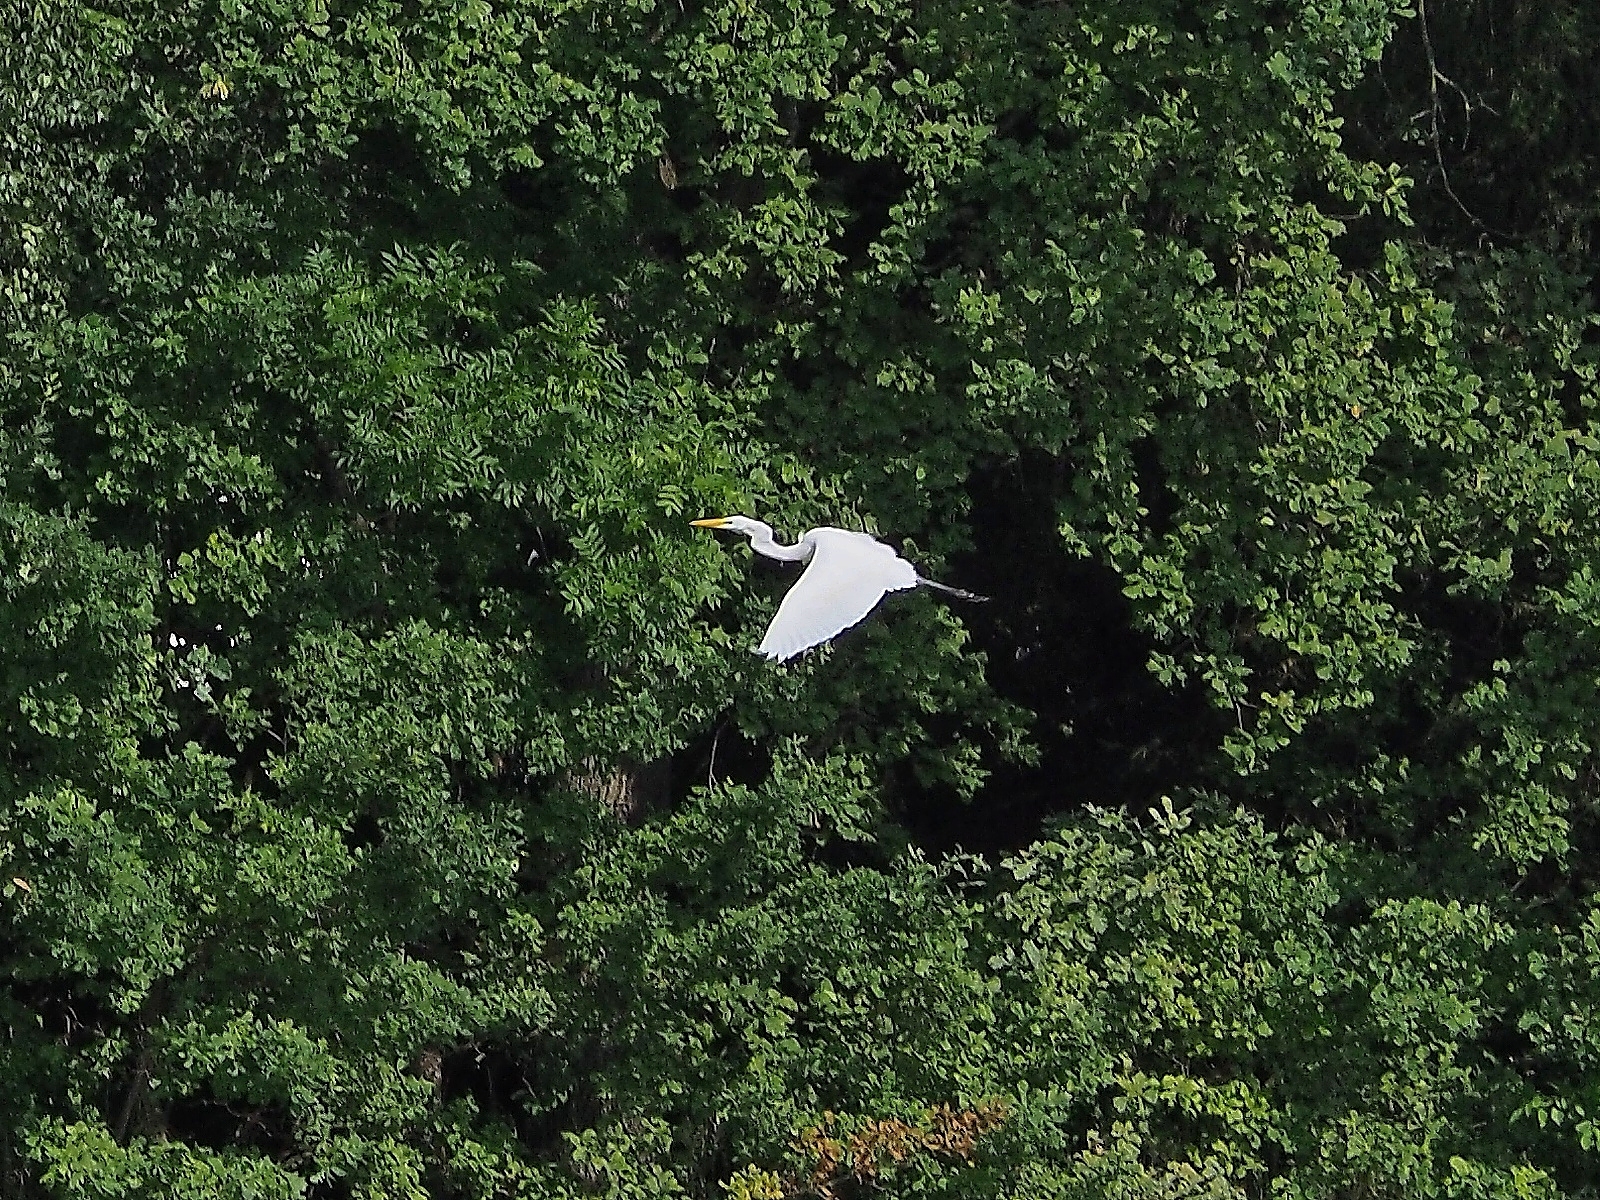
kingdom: Animalia
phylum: Chordata
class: Aves
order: Pelecaniformes
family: Ardeidae
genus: Ardea
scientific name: Ardea alba
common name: Great egret
